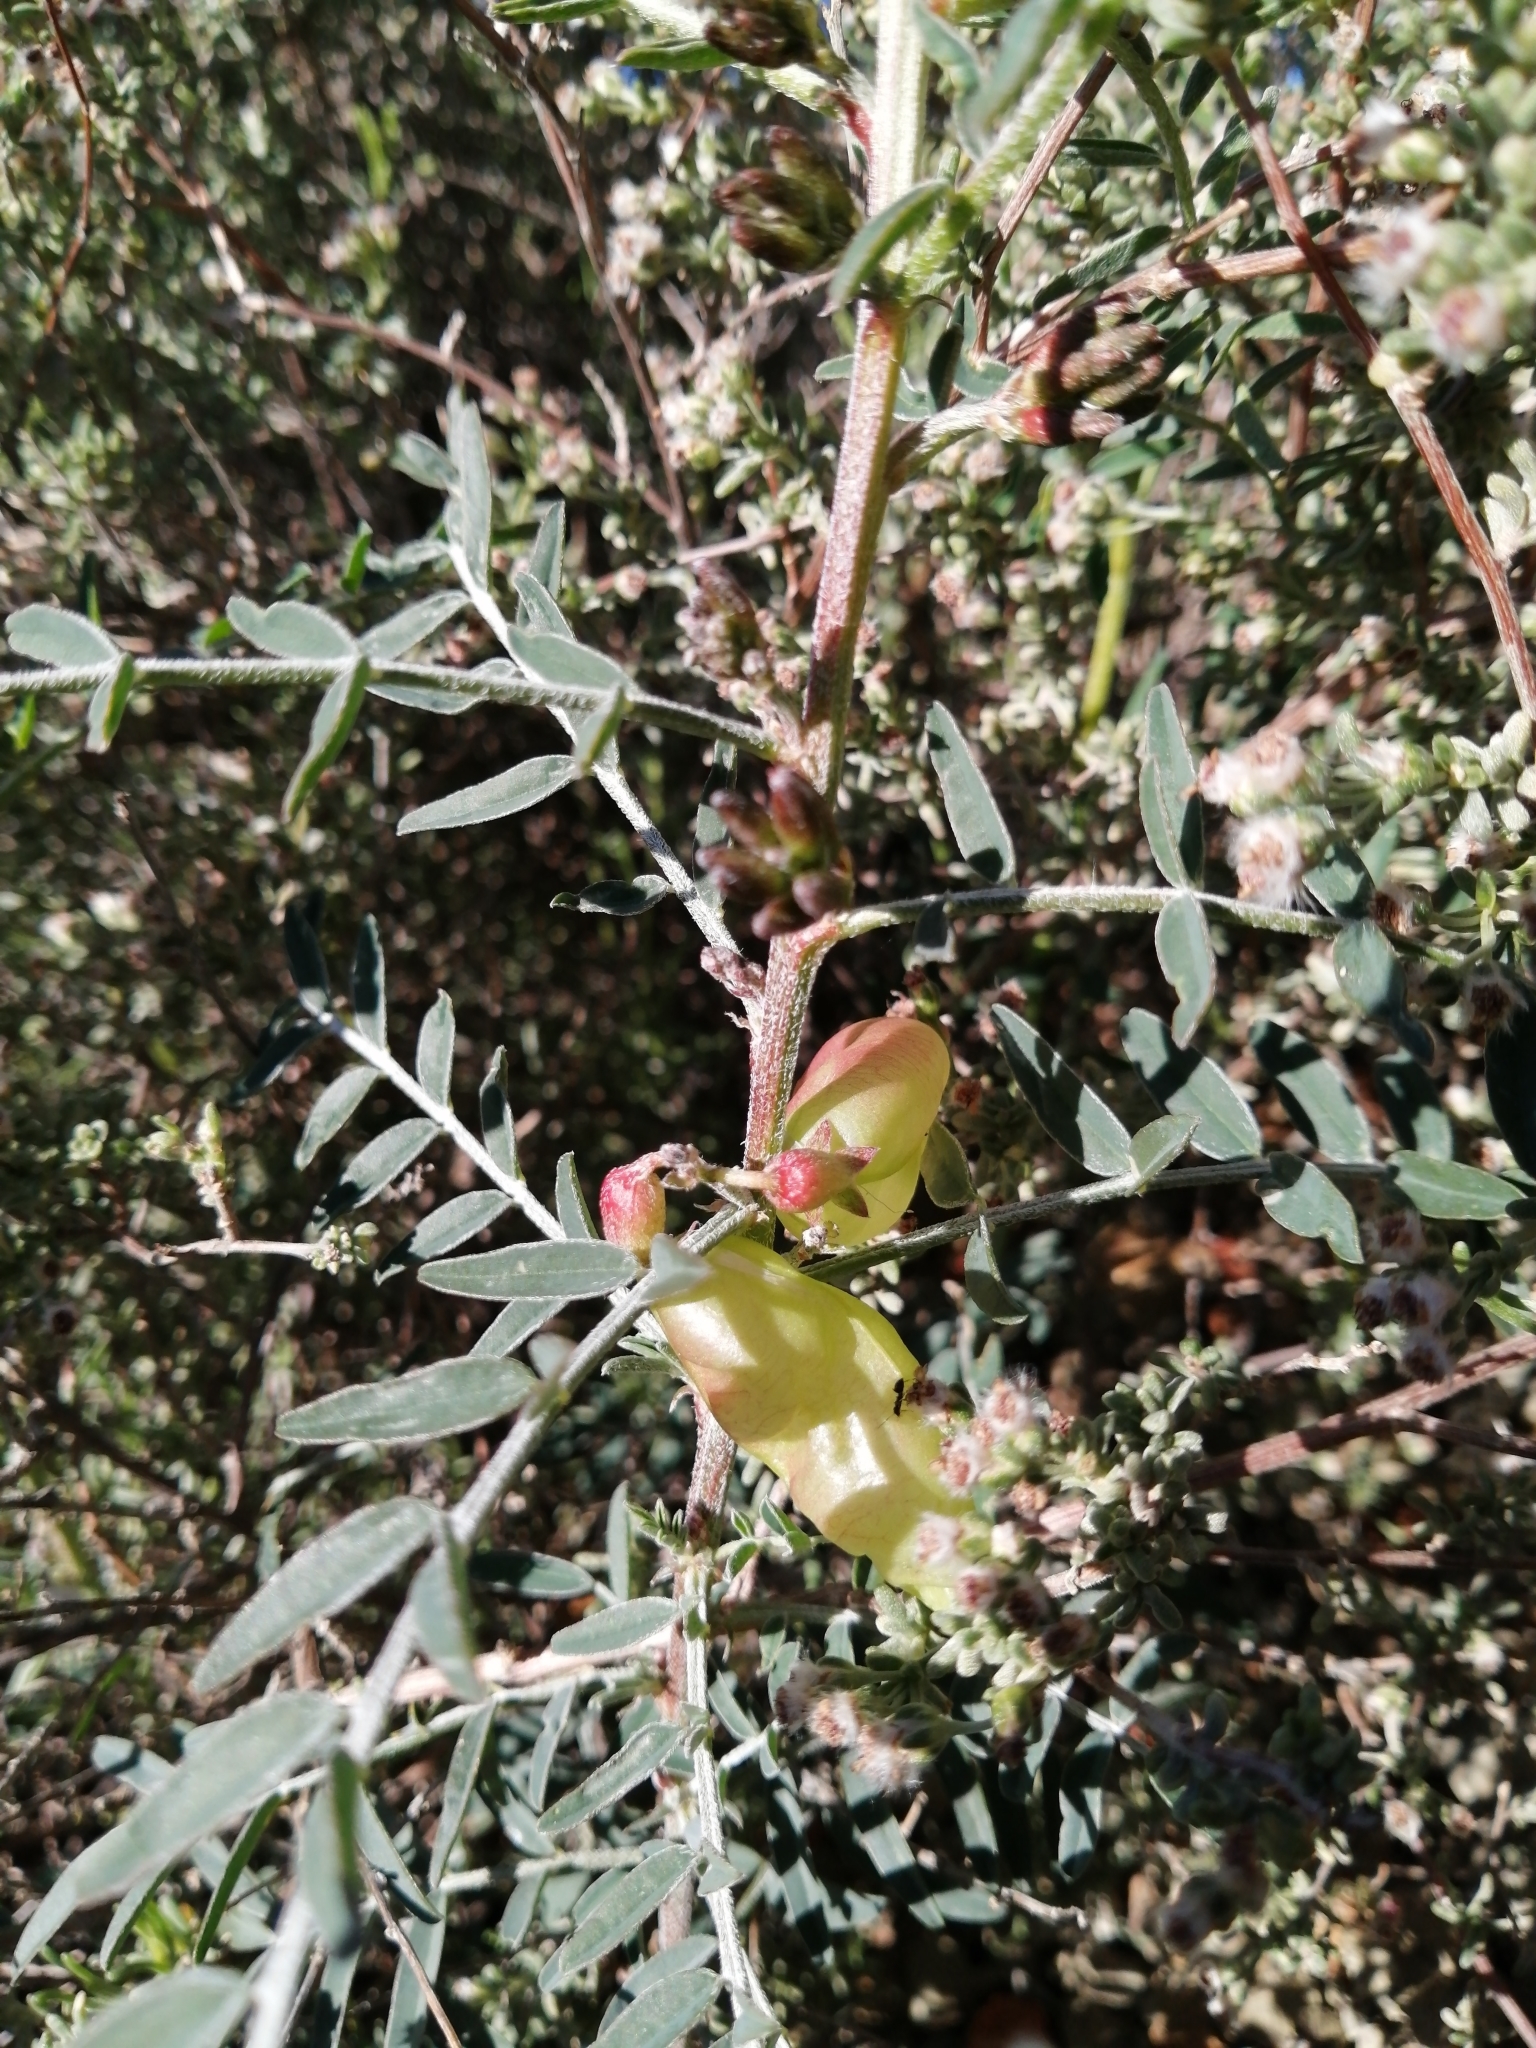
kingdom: Plantae
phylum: Tracheophyta
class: Magnoliopsida
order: Fabales
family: Fabaceae
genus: Lessertia
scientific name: Lessertia frutescens
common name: Balloon-pea
